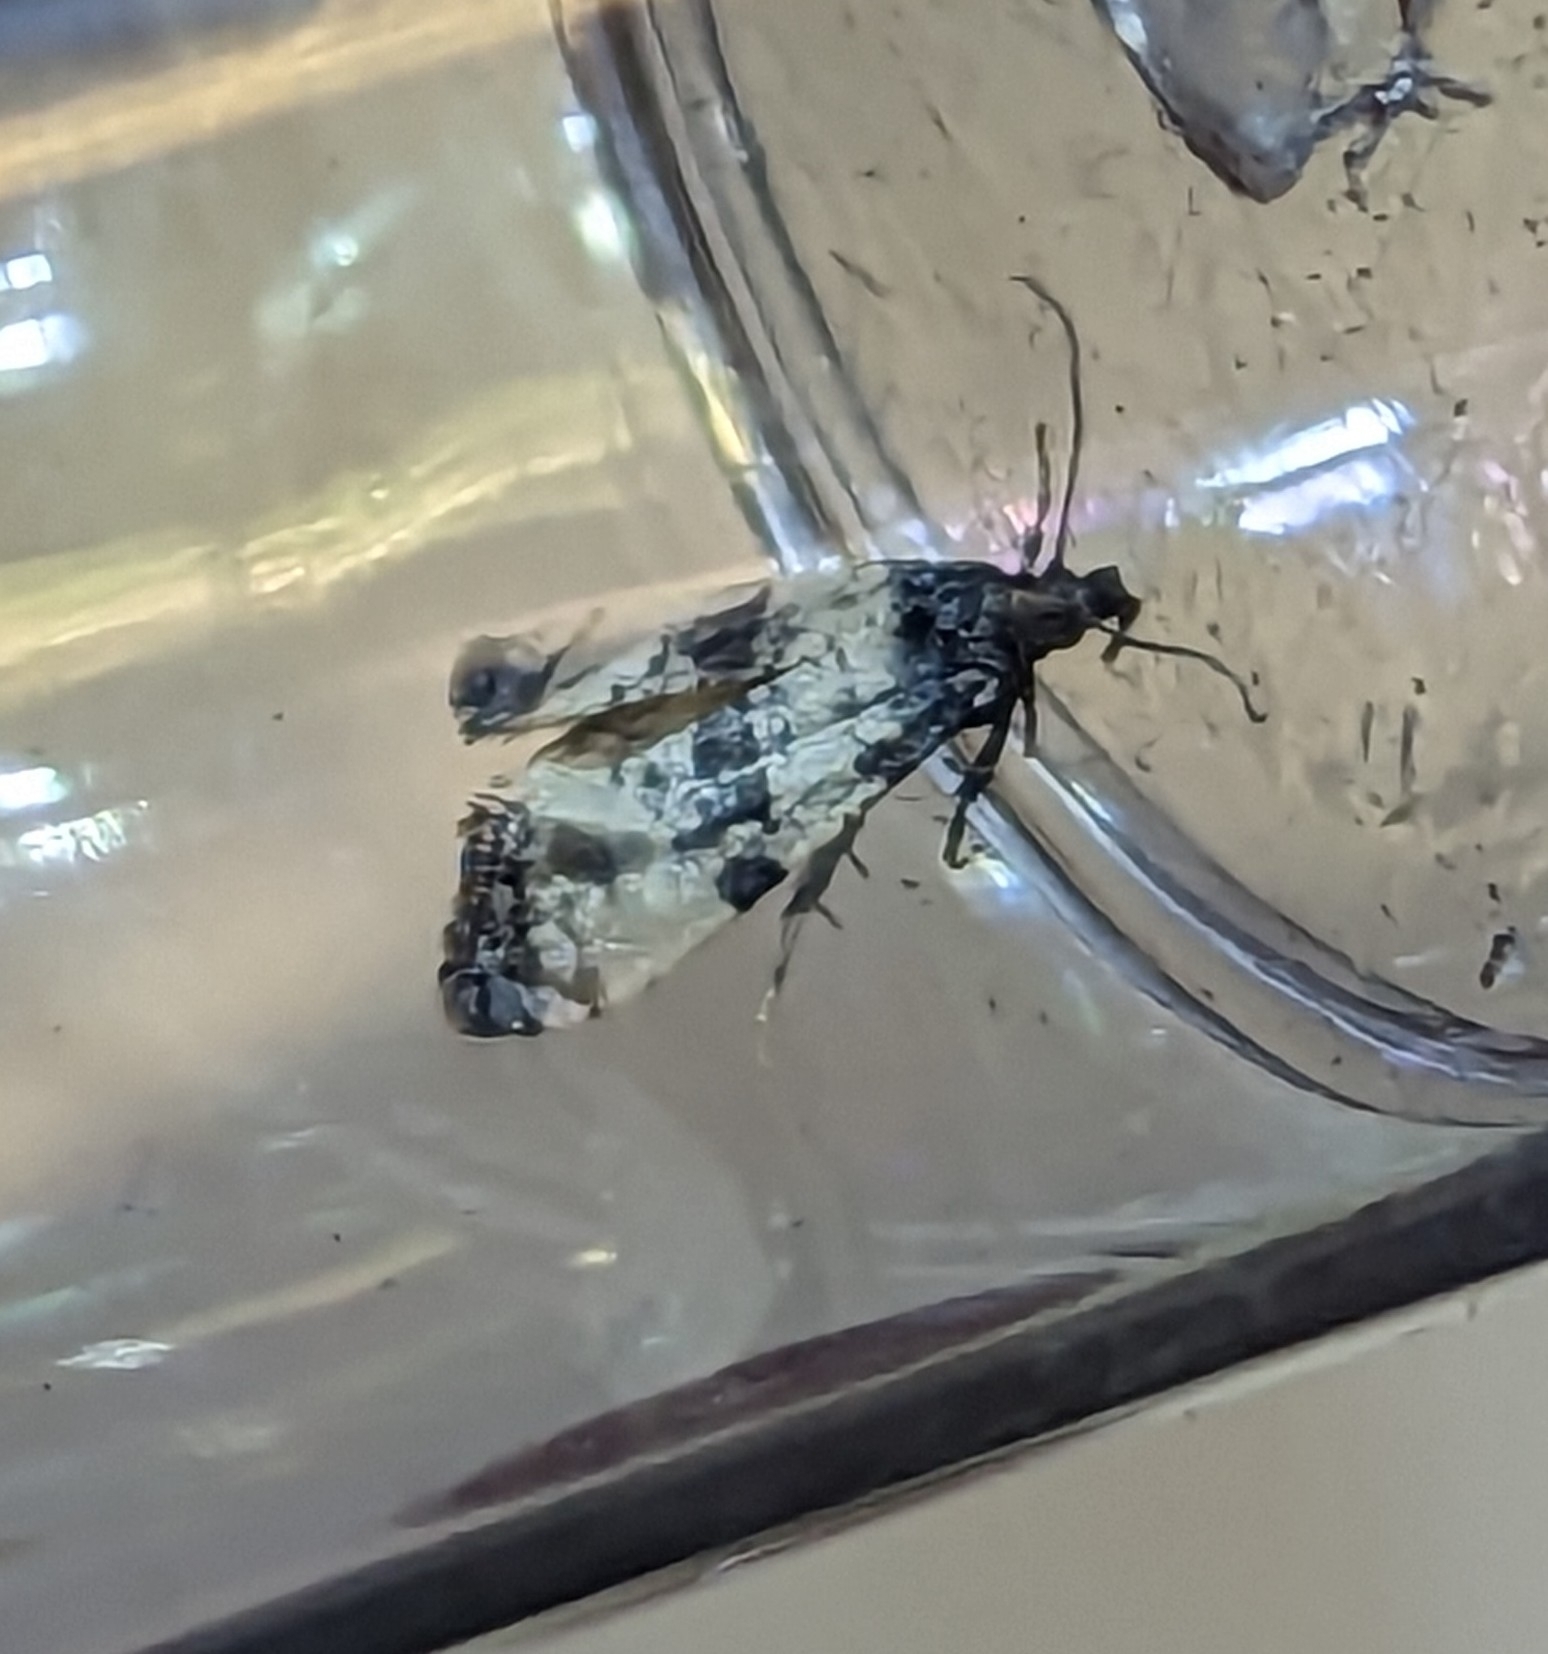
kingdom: Animalia
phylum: Arthropoda
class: Insecta
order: Lepidoptera
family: Tortricidae
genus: Cochylis
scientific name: Cochylis atricapitana
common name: Tortricid moth
